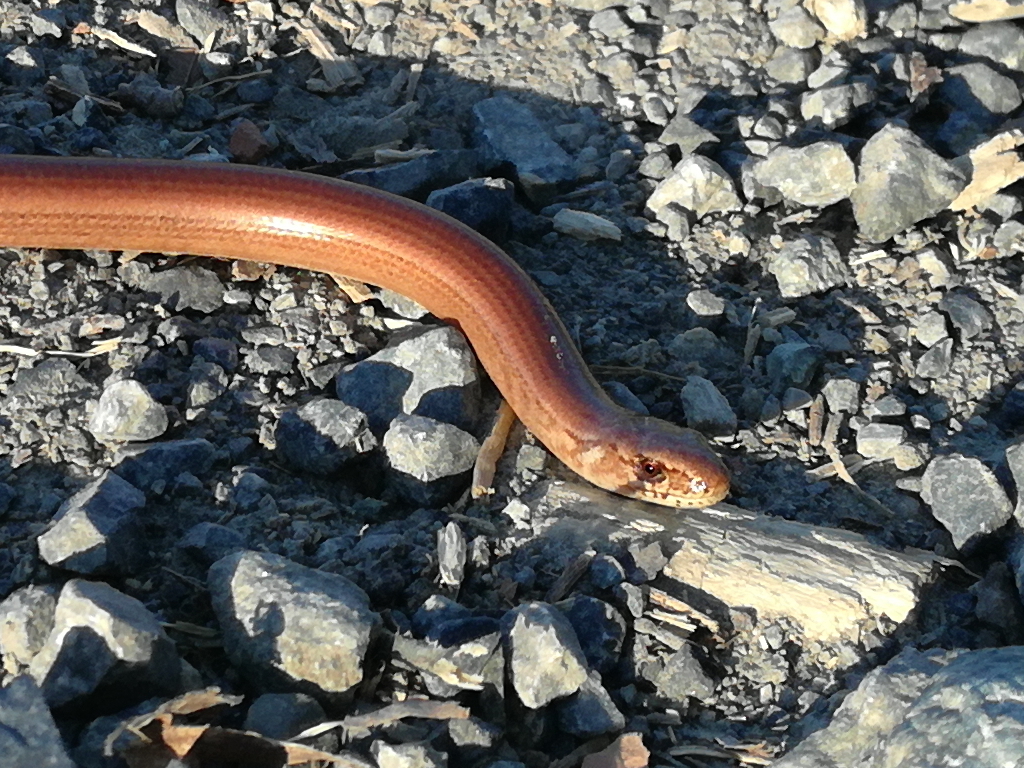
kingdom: Animalia
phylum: Chordata
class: Squamata
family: Anguidae
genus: Anguis
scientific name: Anguis fragilis
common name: Slow worm
